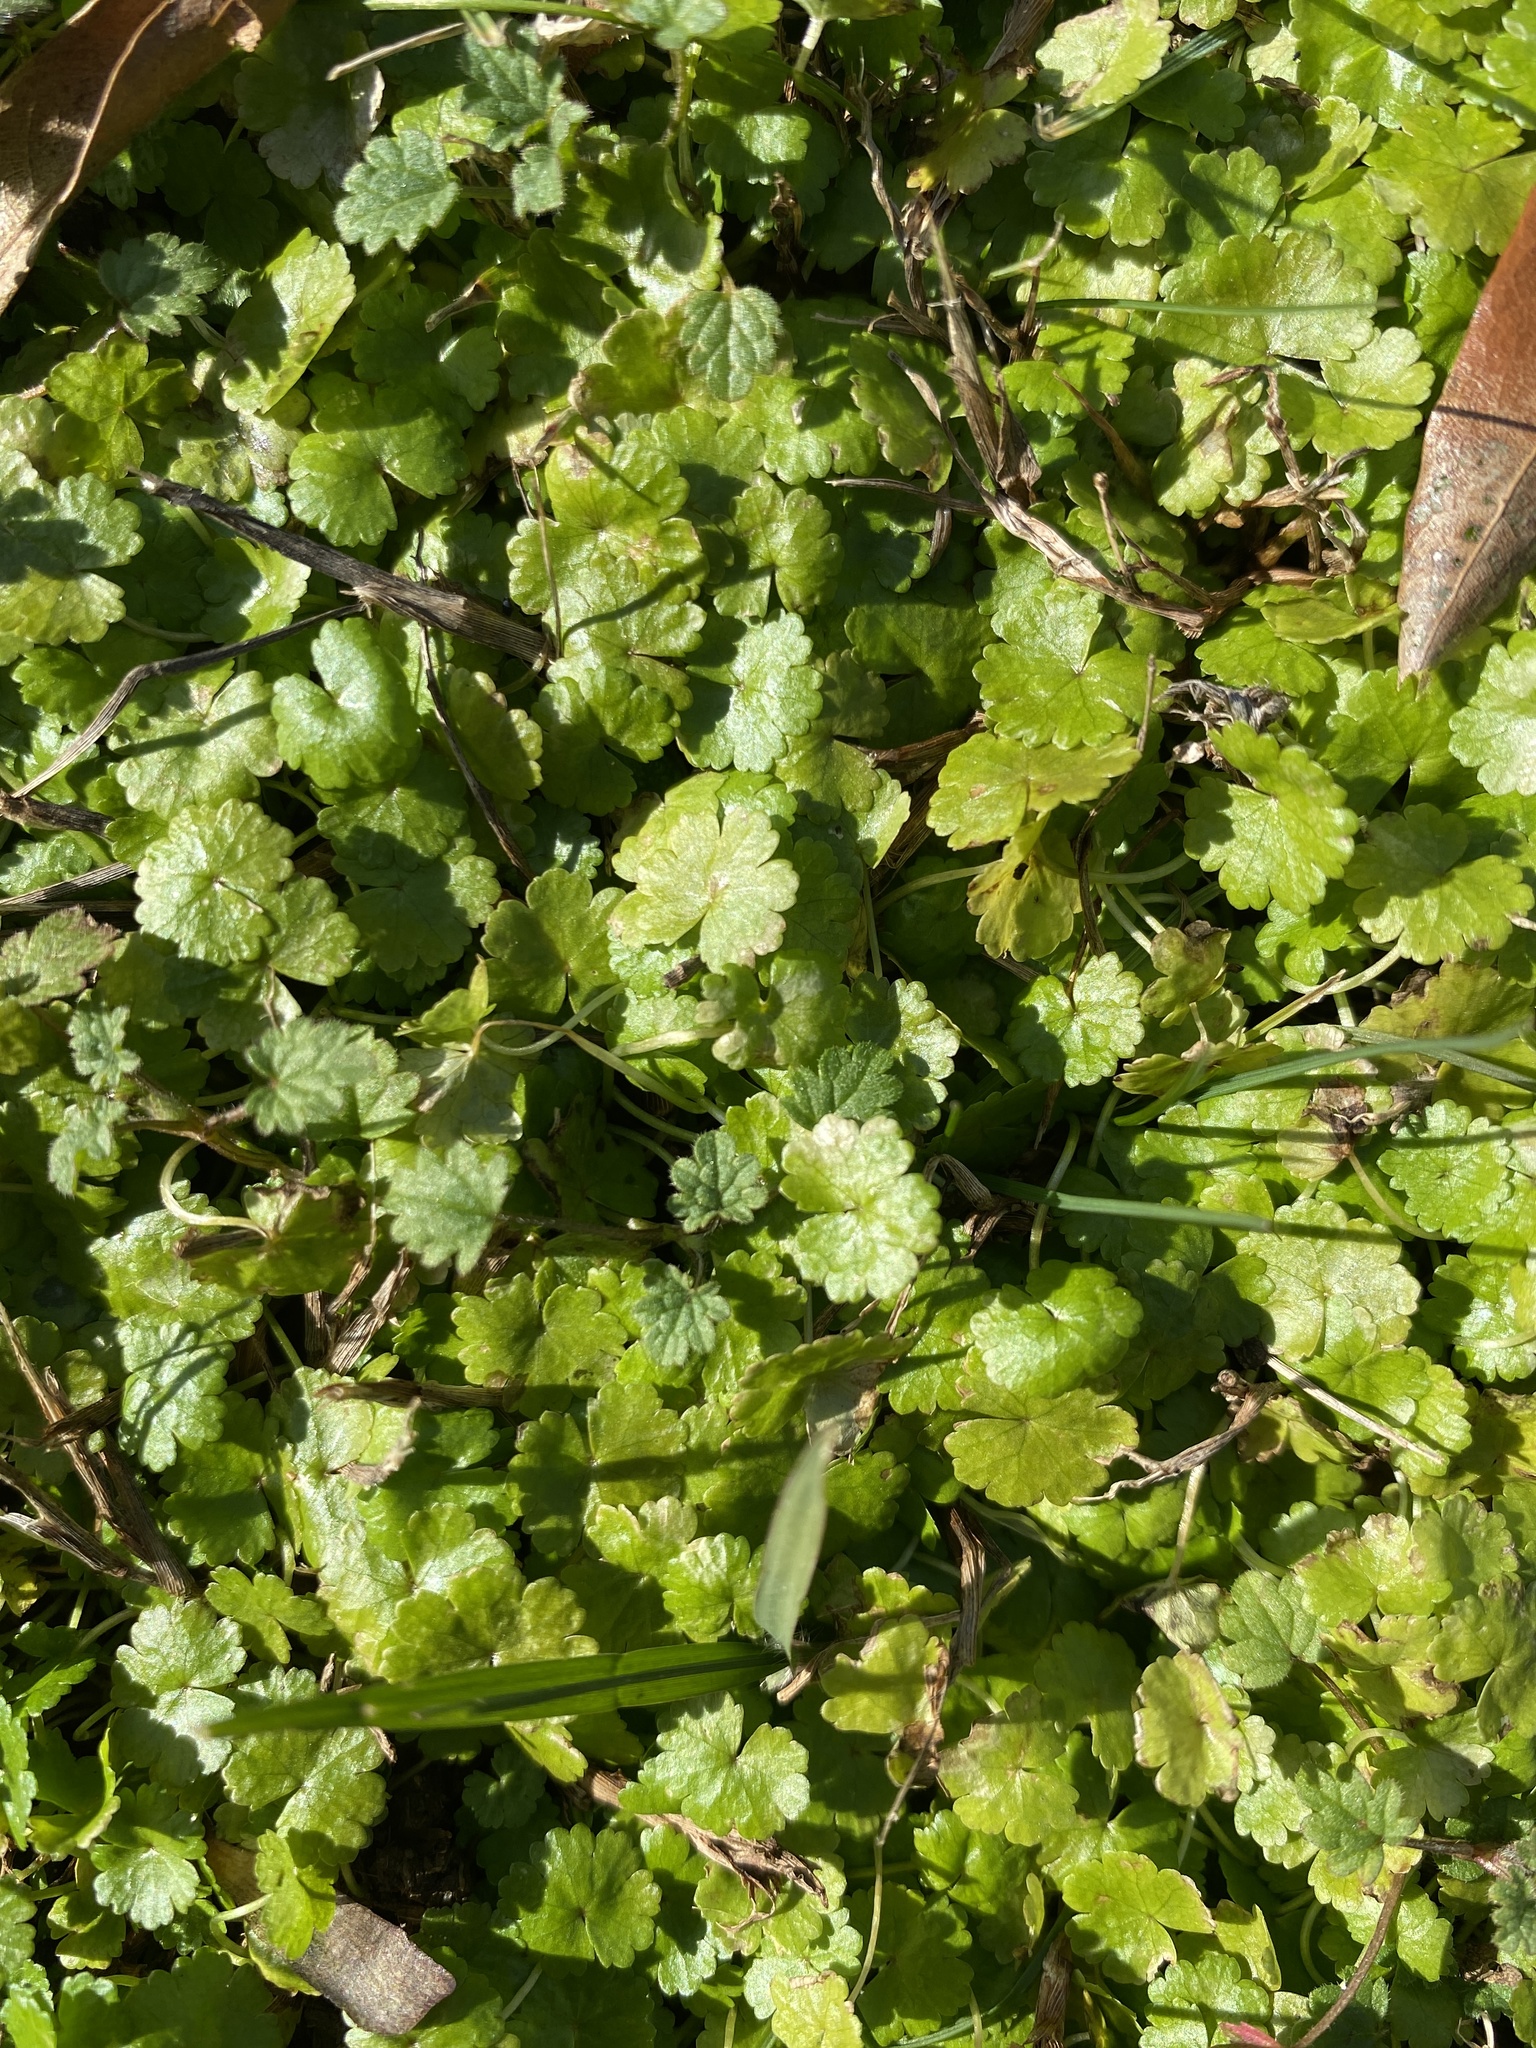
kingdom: Plantae
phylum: Tracheophyta
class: Magnoliopsida
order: Apiales
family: Araliaceae
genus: Hydrocotyle
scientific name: Hydrocotyle sibthorpioides
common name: Lawn marshpennywort
